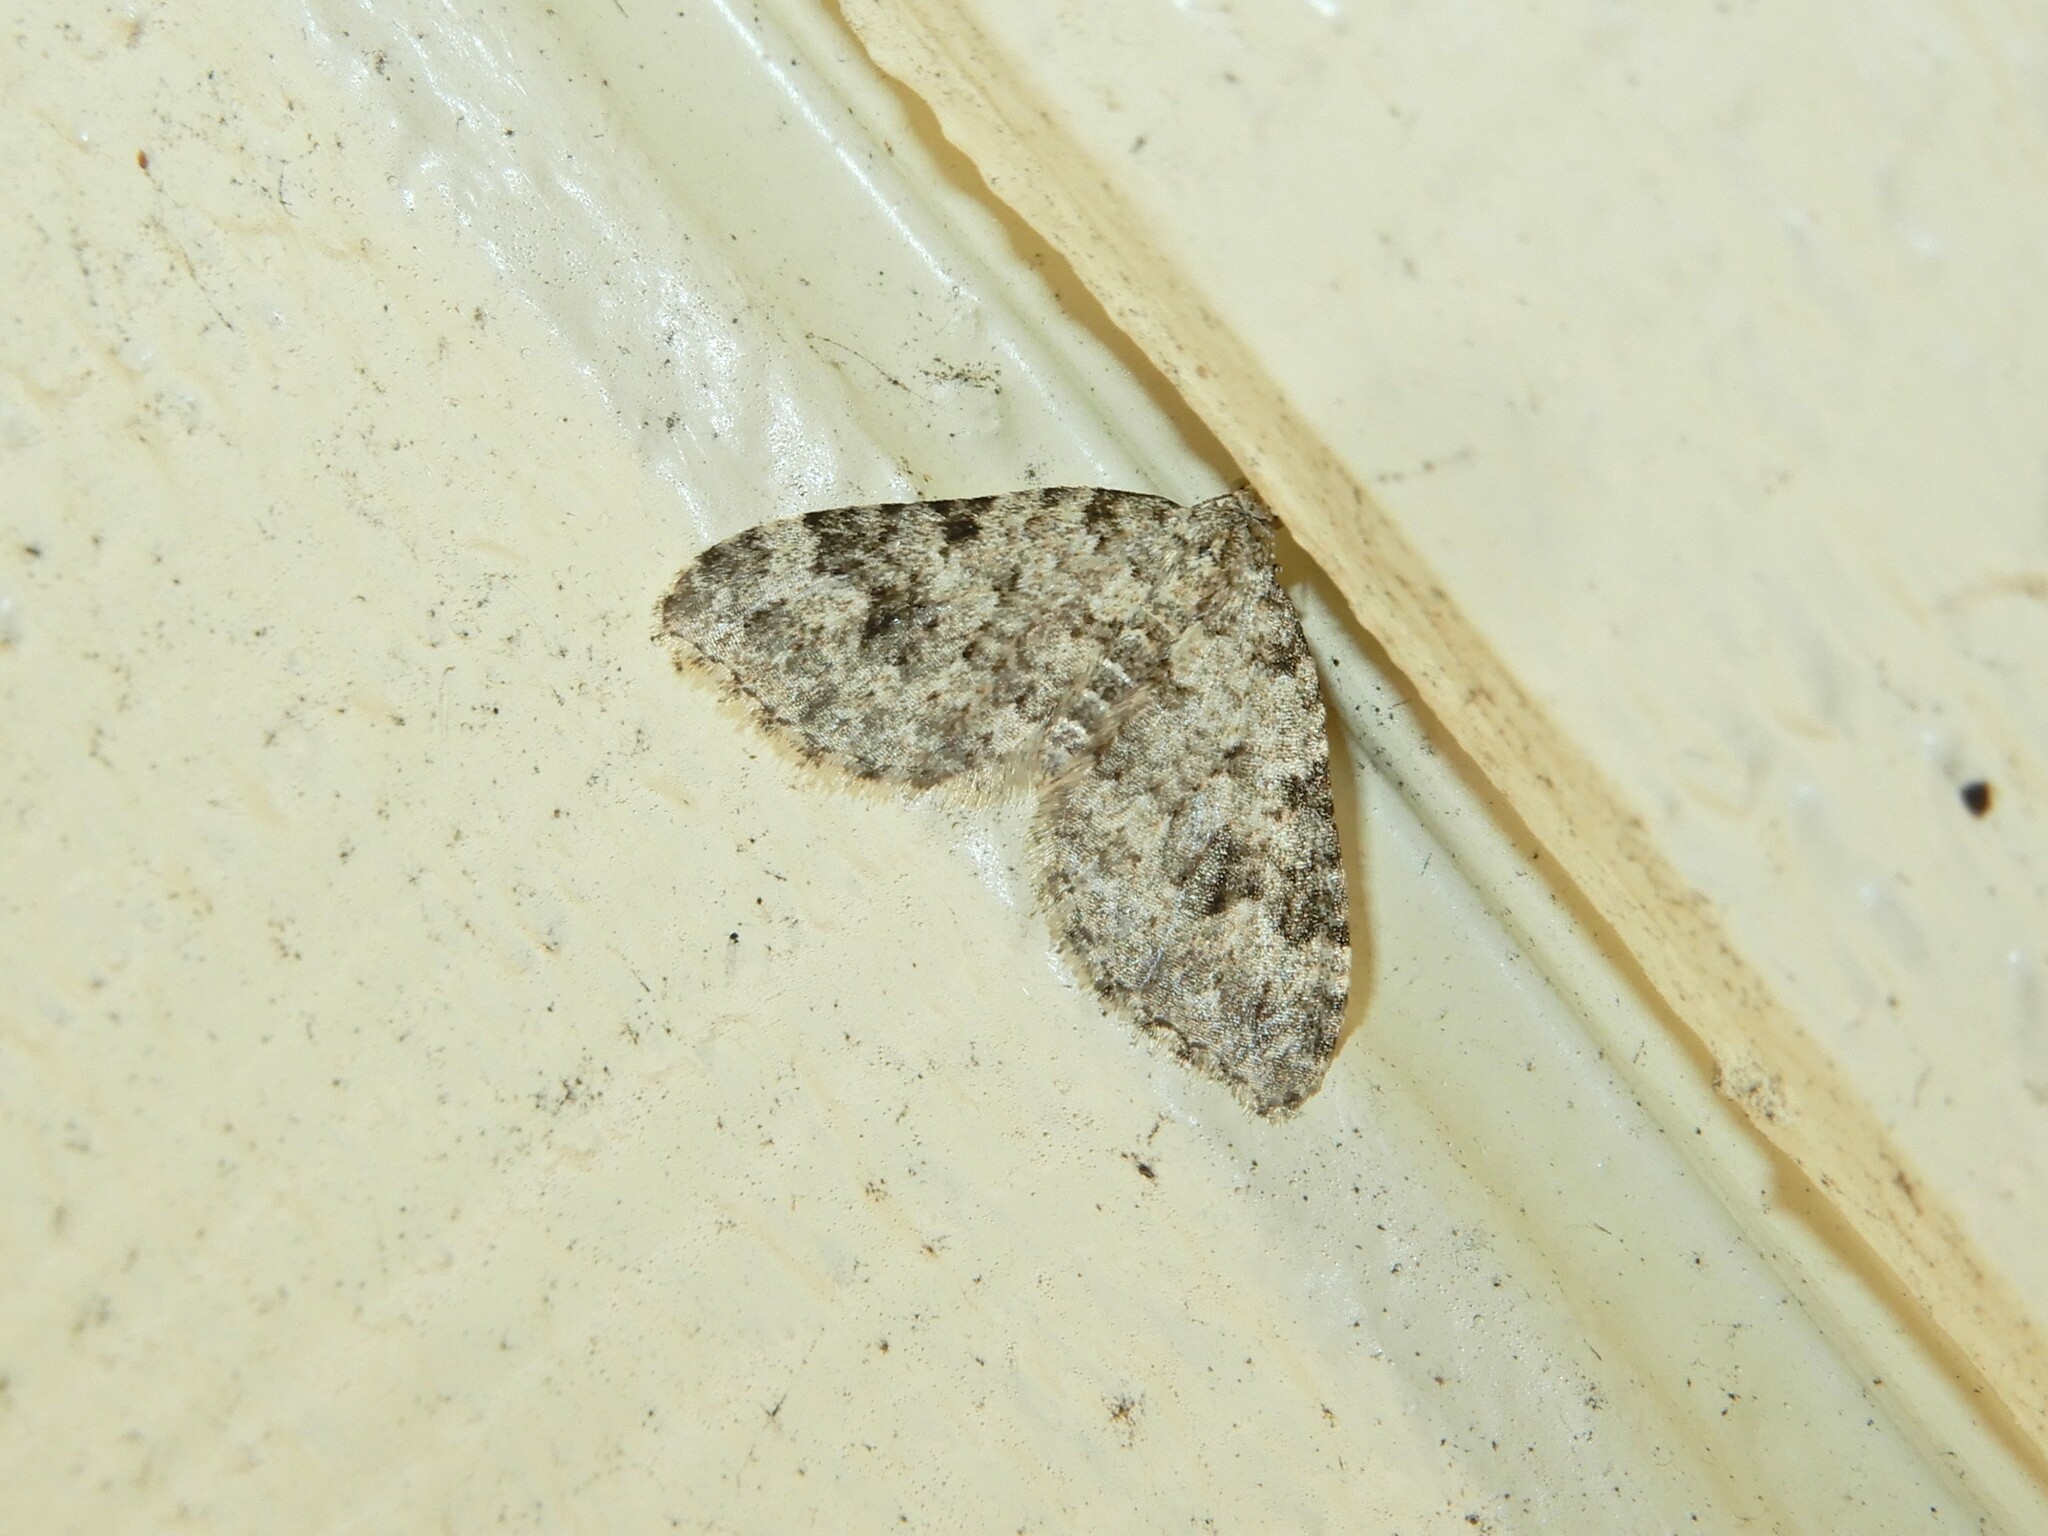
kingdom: Animalia
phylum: Arthropoda
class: Insecta
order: Lepidoptera
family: Geometridae
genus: Helastia
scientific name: Helastia cinerearia
